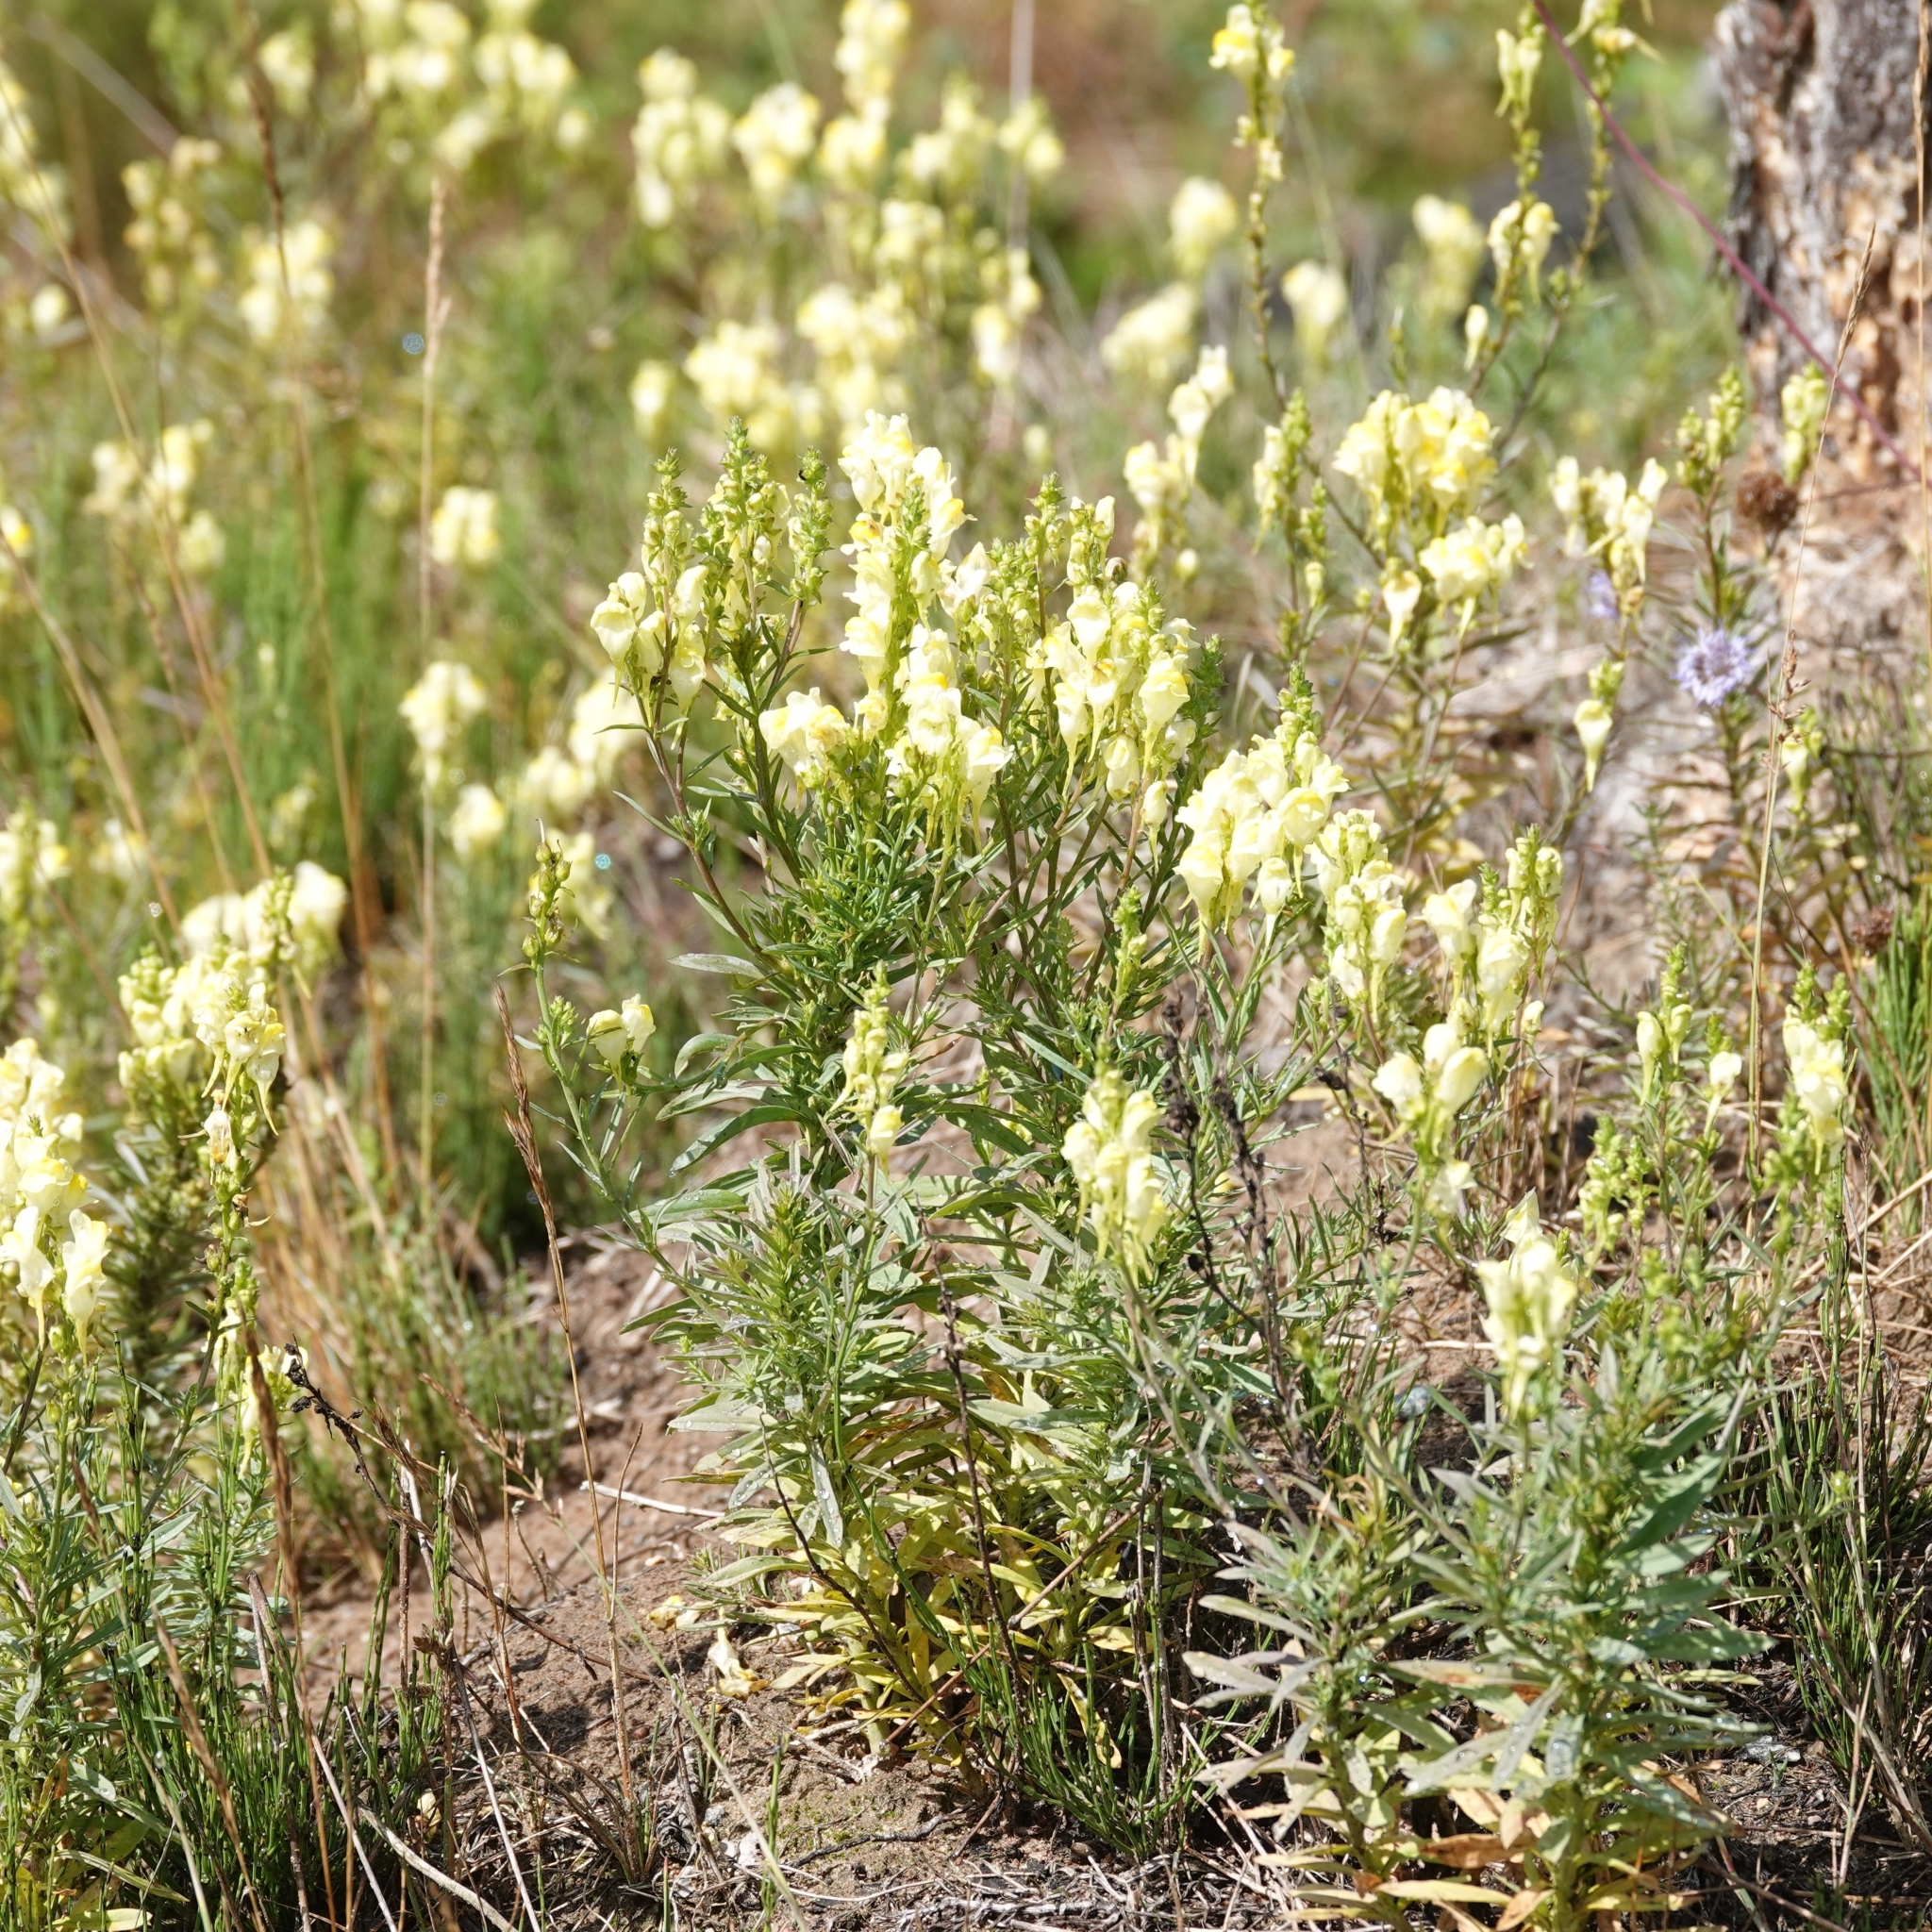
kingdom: Plantae
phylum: Tracheophyta
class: Magnoliopsida
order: Lamiales
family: Plantaginaceae
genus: Linaria
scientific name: Linaria vulgaris
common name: Butter and eggs
